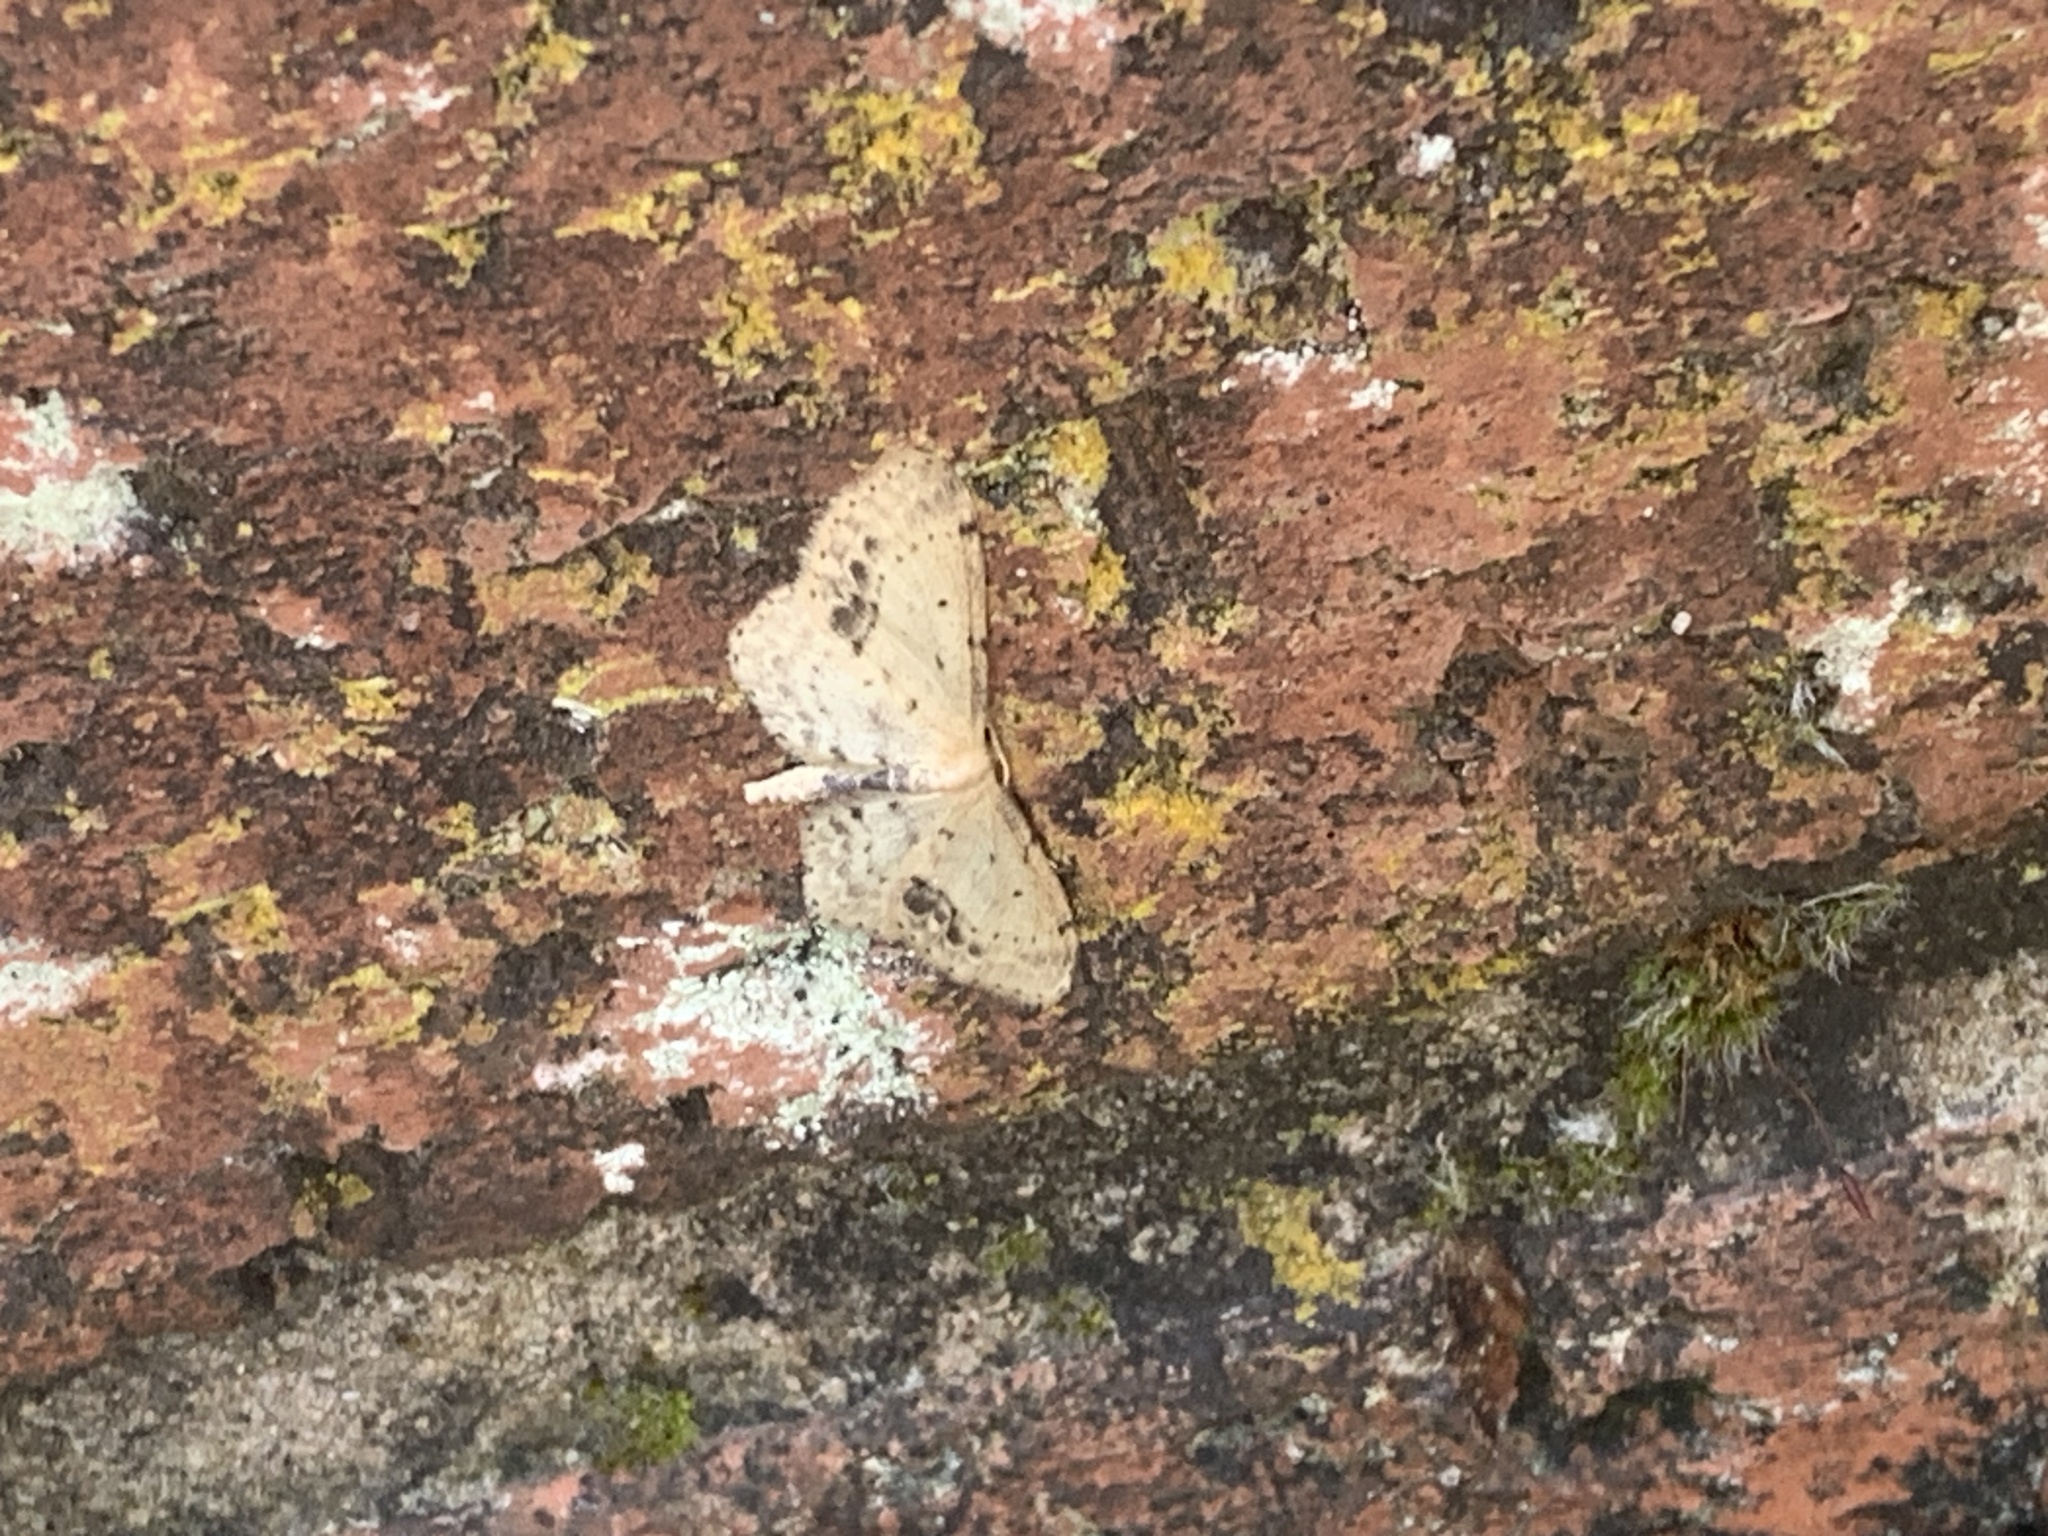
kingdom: Animalia
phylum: Arthropoda
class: Insecta
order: Lepidoptera
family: Geometridae
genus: Idaea
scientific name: Idaea dimidiata
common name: Single-dotted wave
